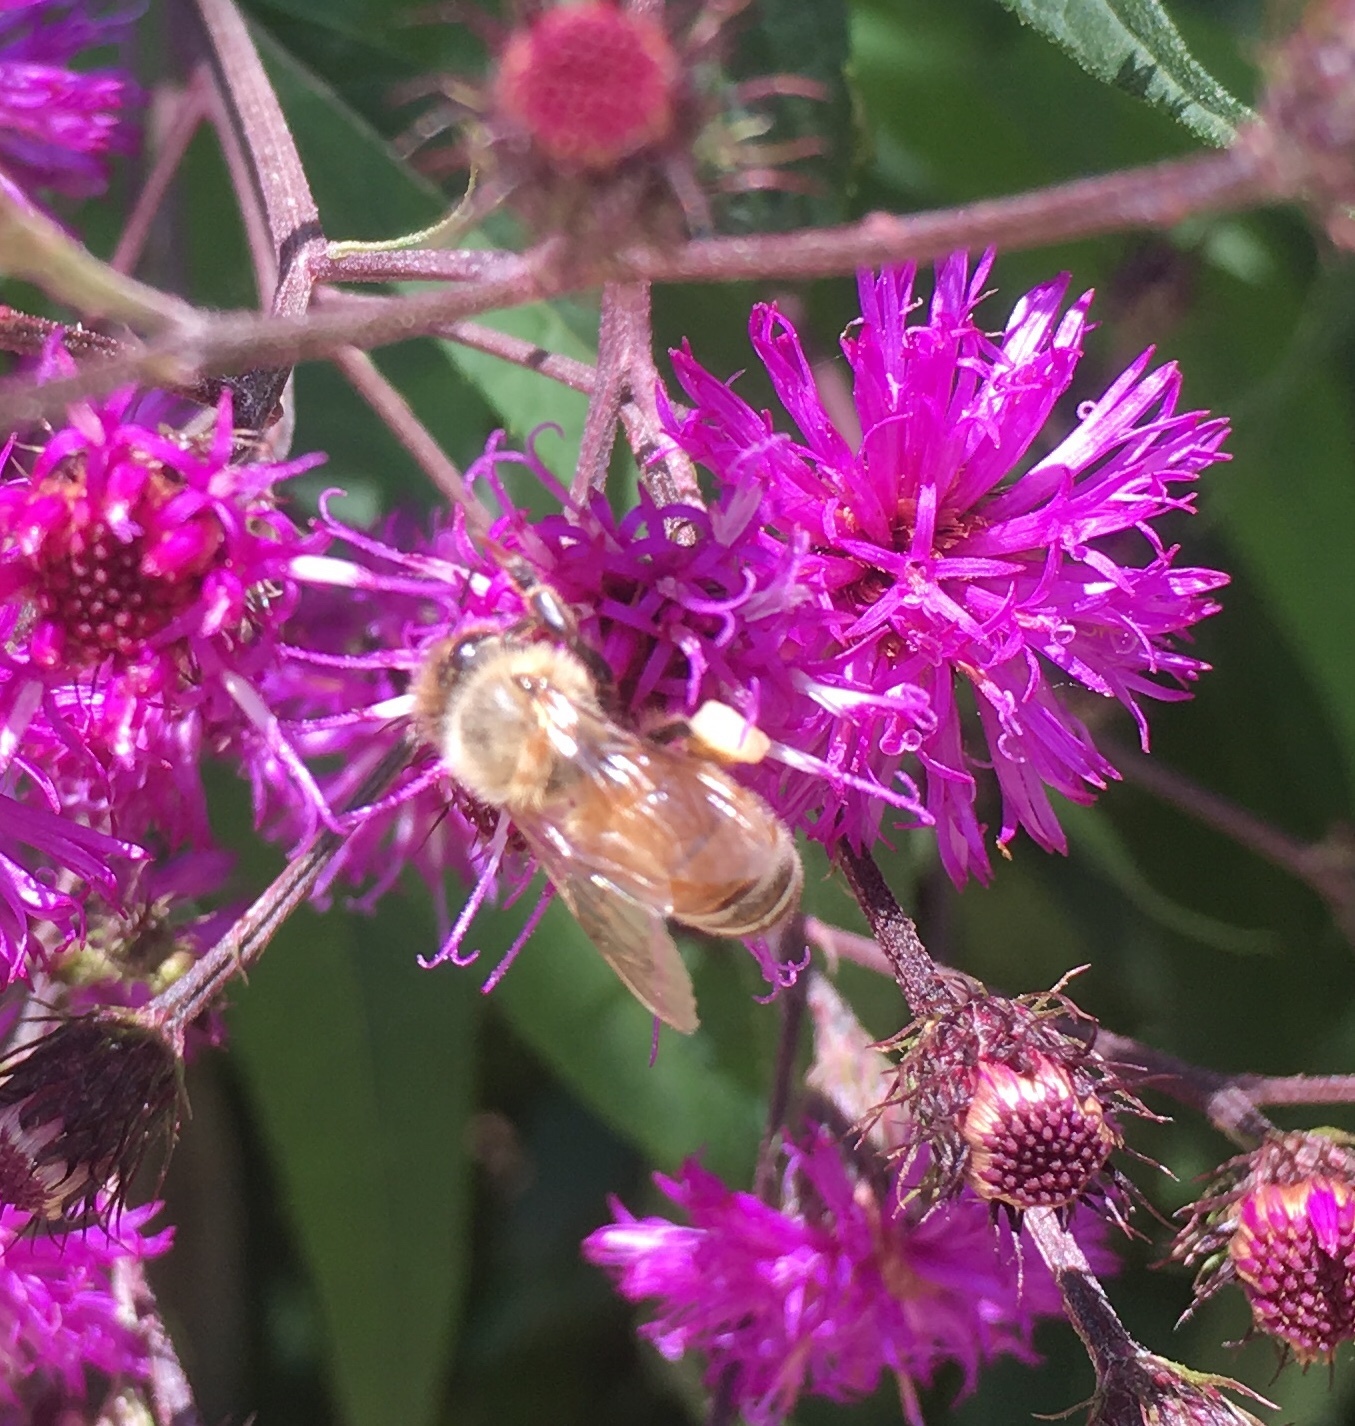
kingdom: Animalia
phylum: Arthropoda
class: Insecta
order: Hymenoptera
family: Apidae
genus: Apis
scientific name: Apis mellifera
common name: Honey bee
